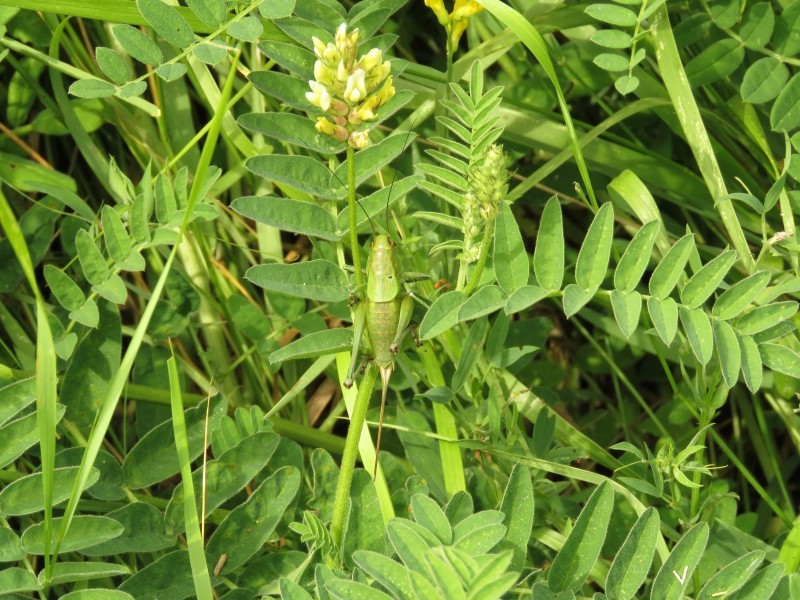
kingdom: Plantae
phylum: Tracheophyta
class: Magnoliopsida
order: Fabales
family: Fabaceae
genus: Astragalus
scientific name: Astragalus glycyphyllos
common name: Wild liquorice
